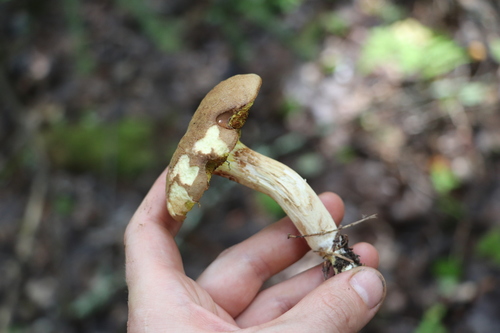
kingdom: Fungi
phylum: Basidiomycota
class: Agaricomycetes
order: Boletales
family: Boletaceae
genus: Xerocomus
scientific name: Xerocomus subtomentosus
